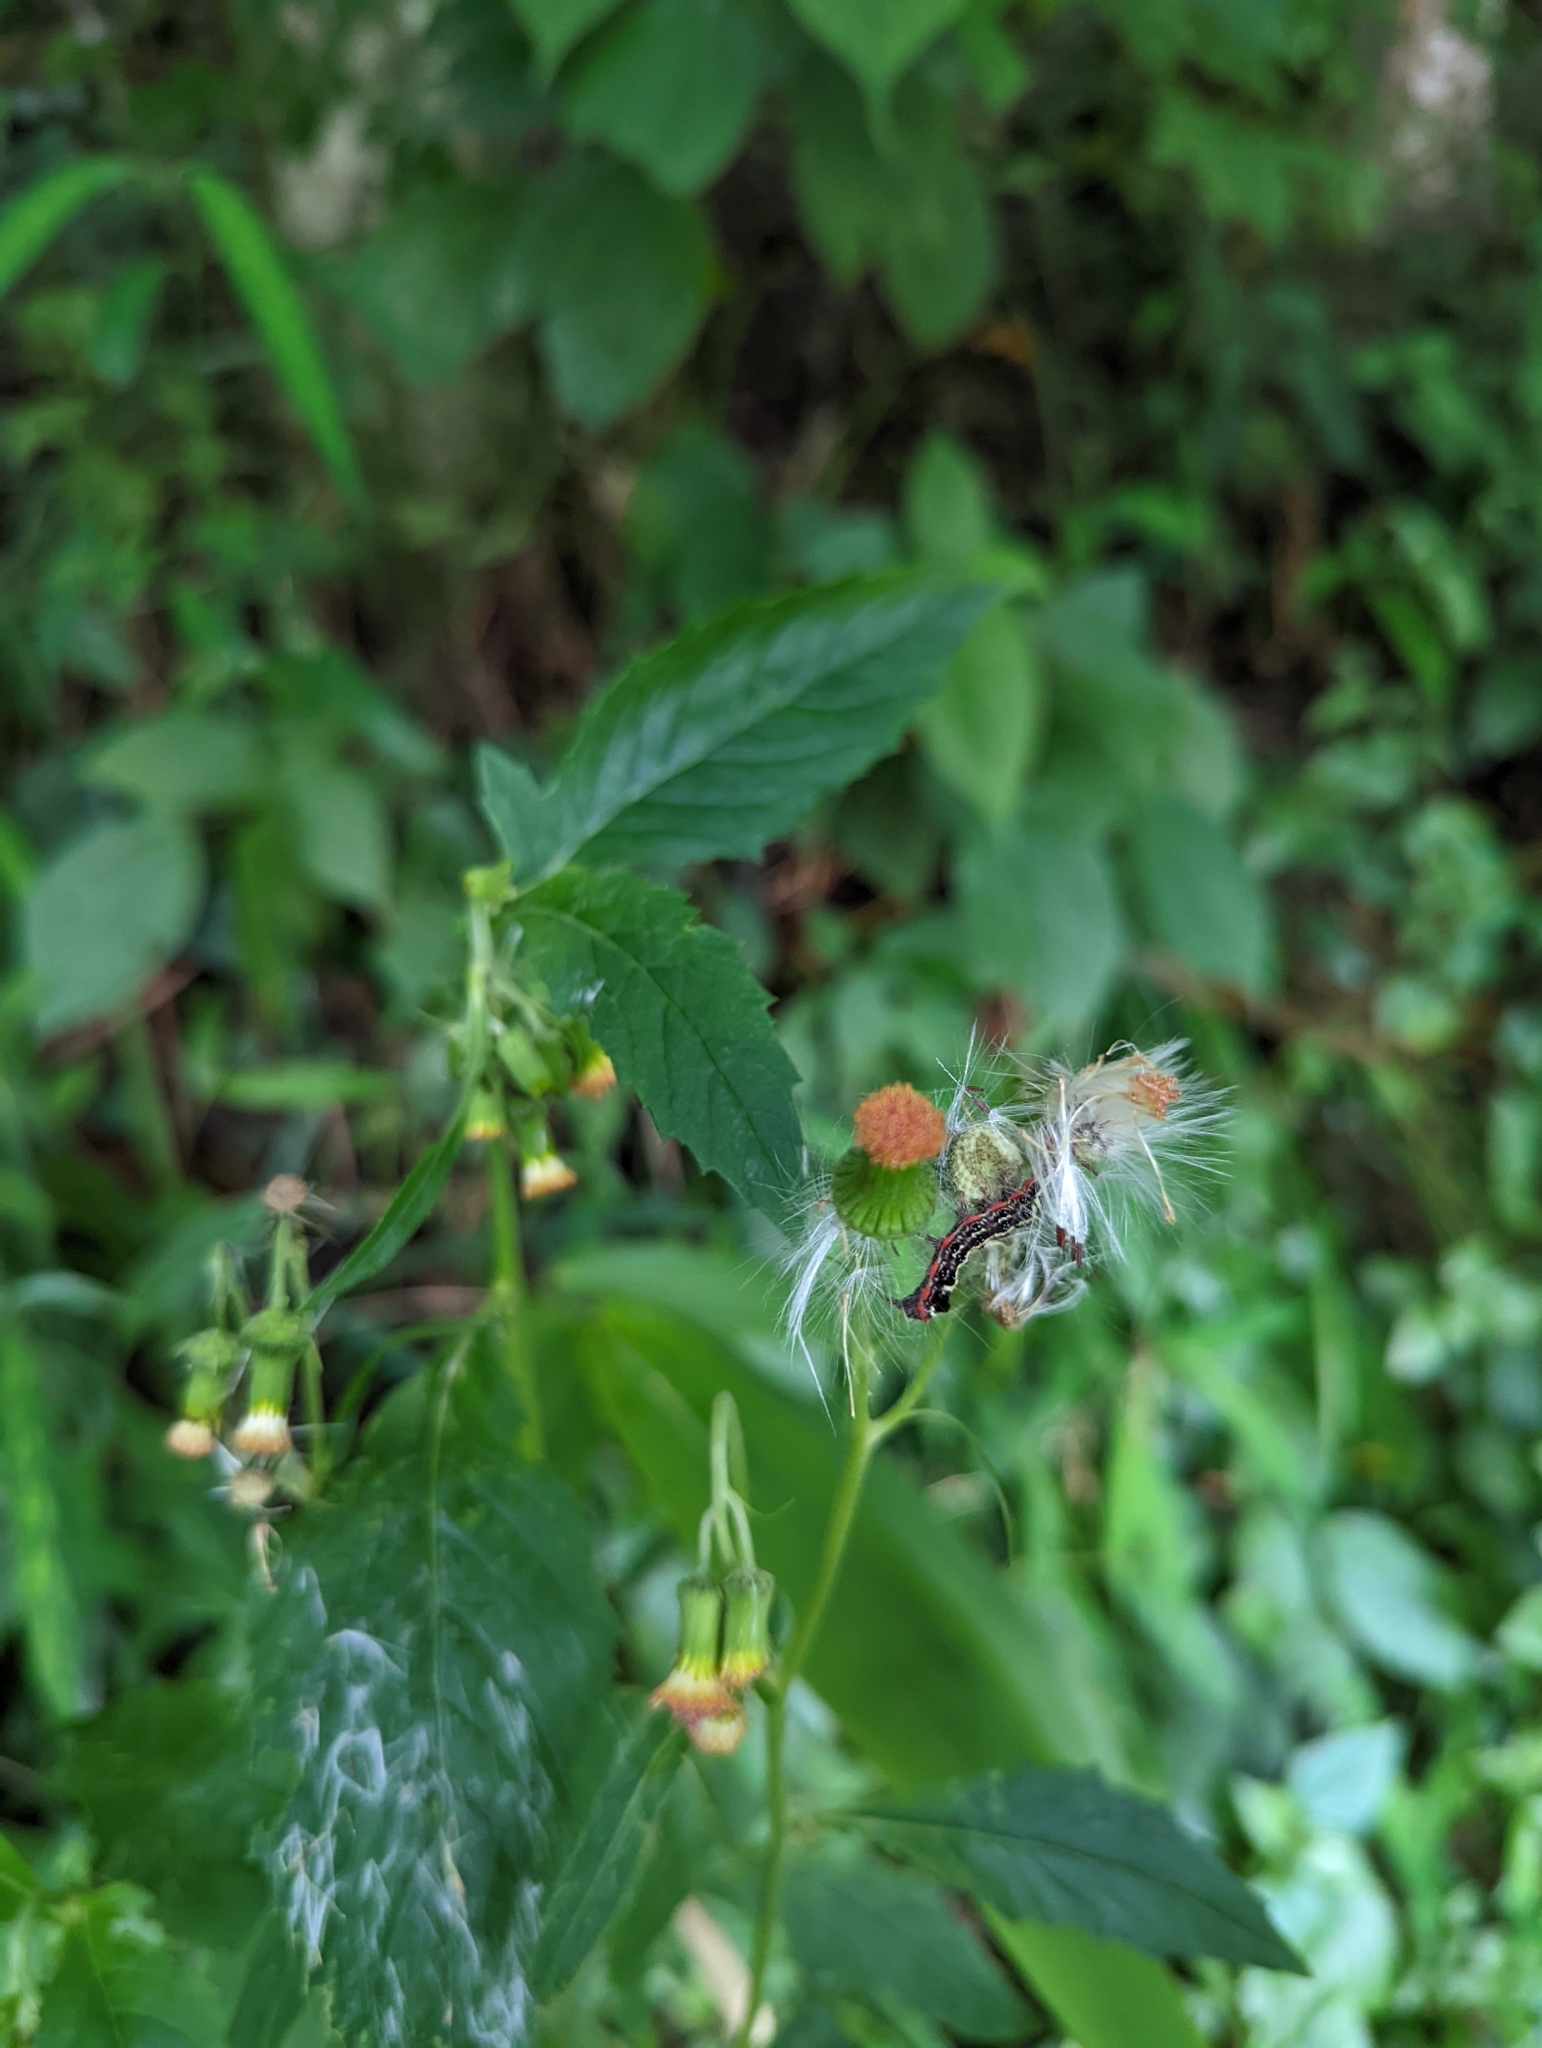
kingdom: Plantae
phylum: Tracheophyta
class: Magnoliopsida
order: Asterales
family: Asteraceae
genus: Crassocephalum
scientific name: Crassocephalum crepidioides
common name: Redflower ragleaf
